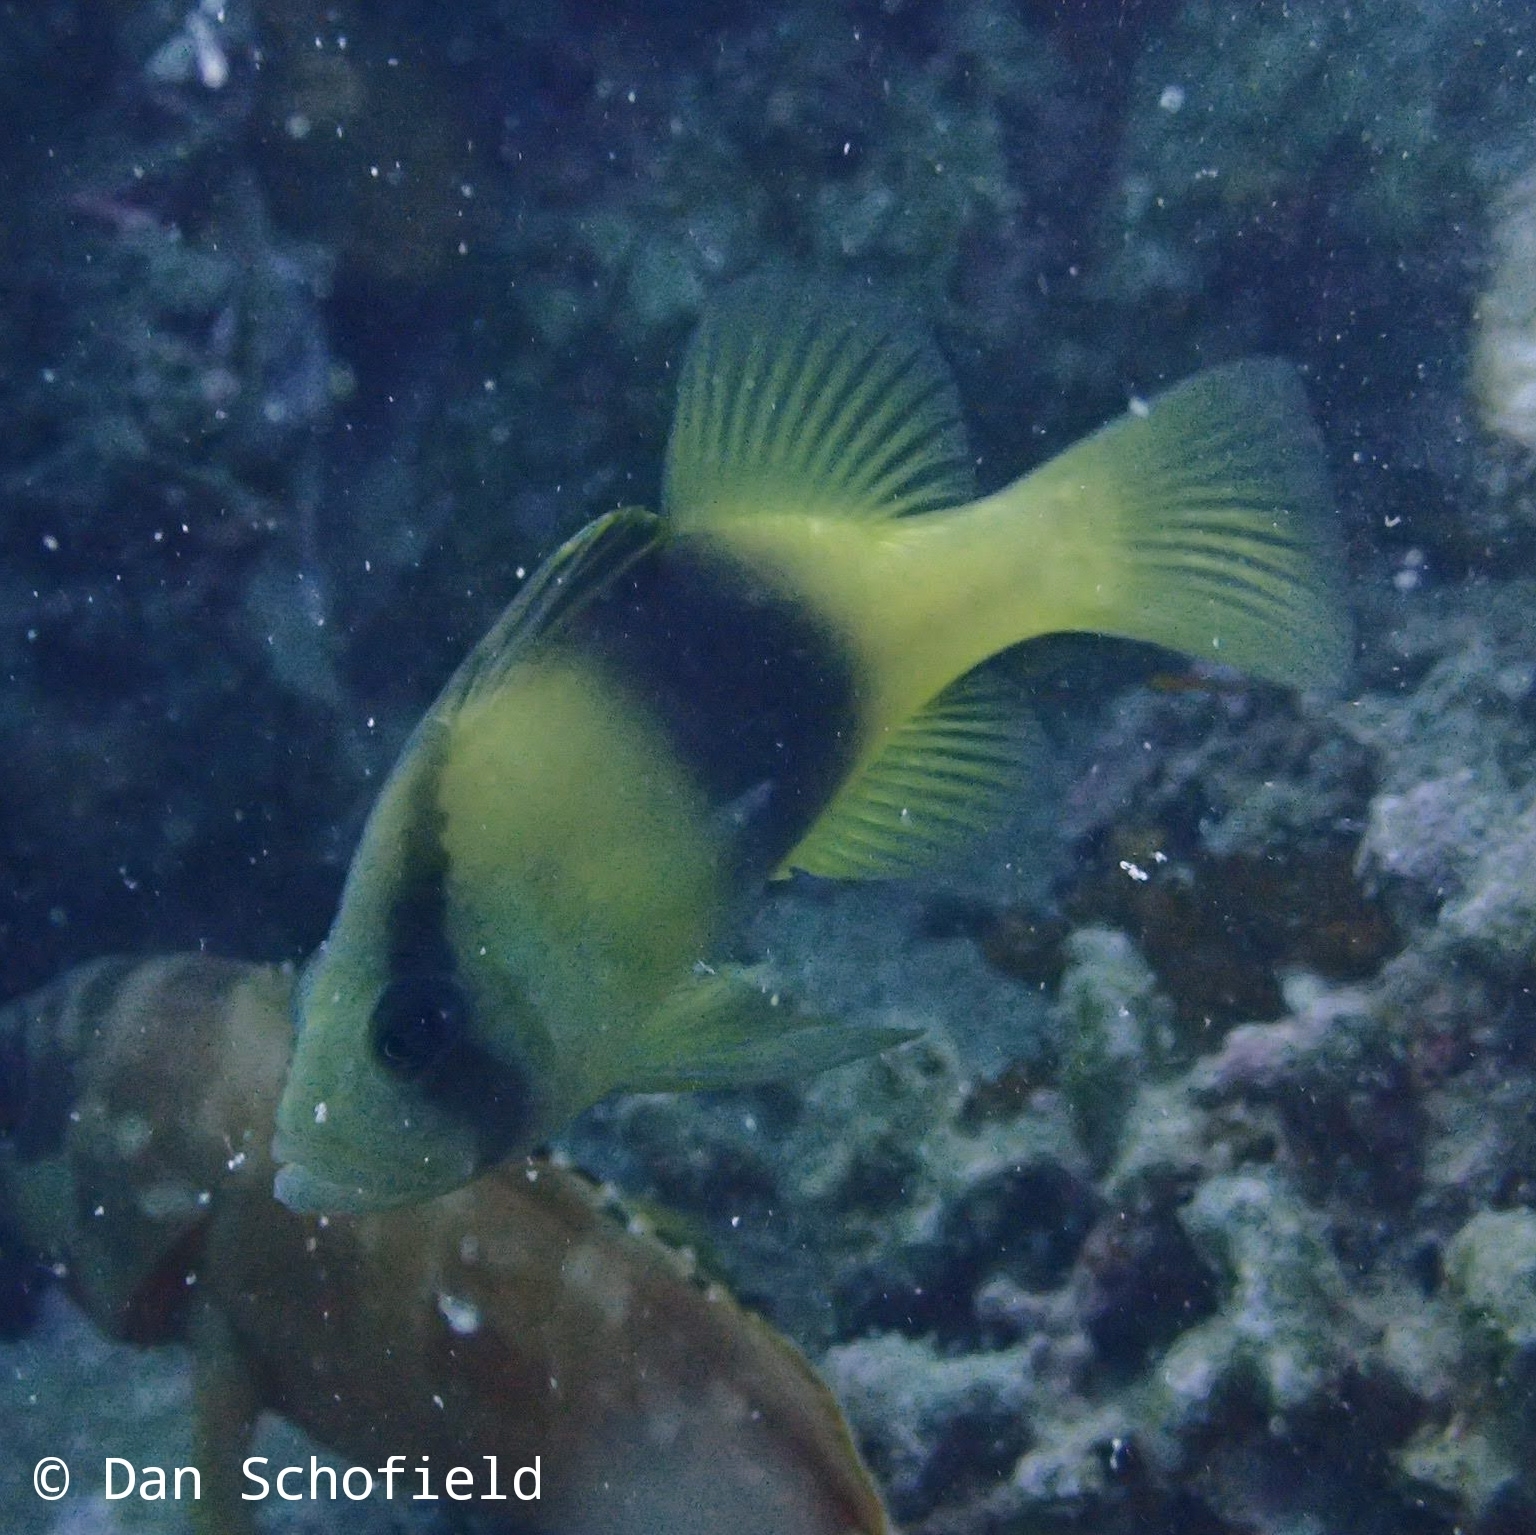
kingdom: Animalia
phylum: Chordata
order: Perciformes
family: Serranidae
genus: Diploprion
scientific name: Diploprion bifasciatum
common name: Barred soapfish
